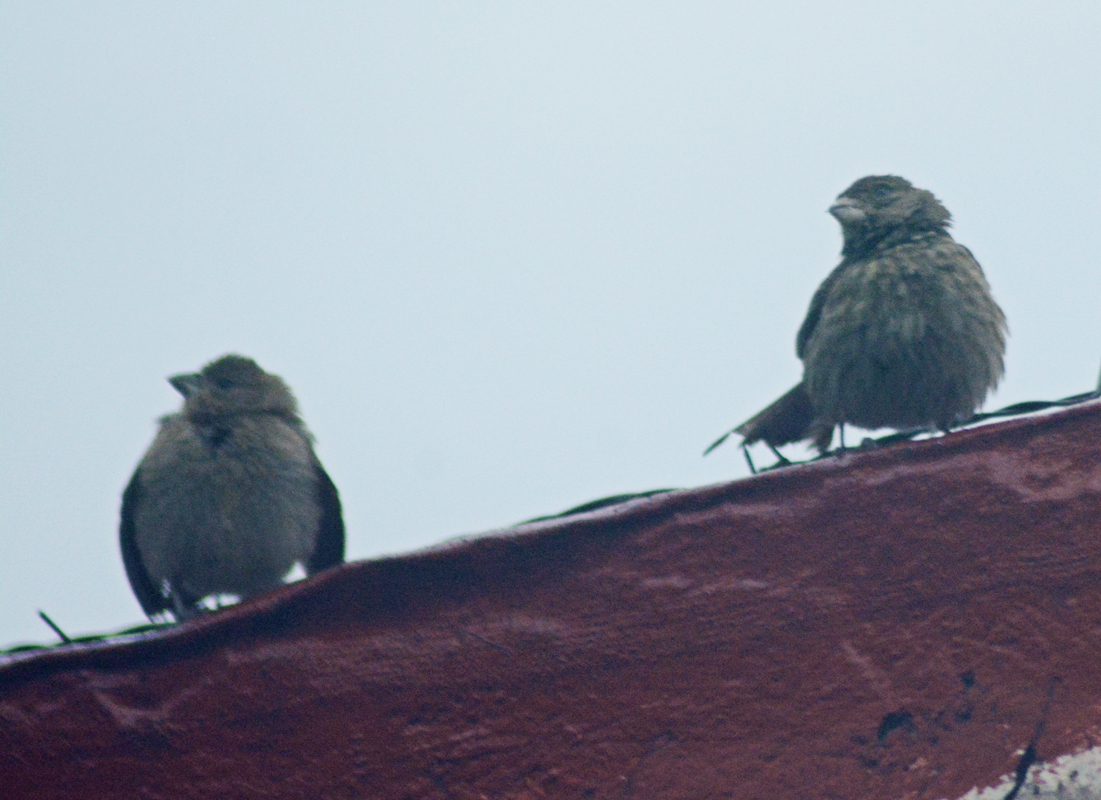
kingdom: Animalia
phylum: Chordata
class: Aves
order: Passeriformes
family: Fringillidae
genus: Haemorhous
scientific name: Haemorhous mexicanus
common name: House finch
